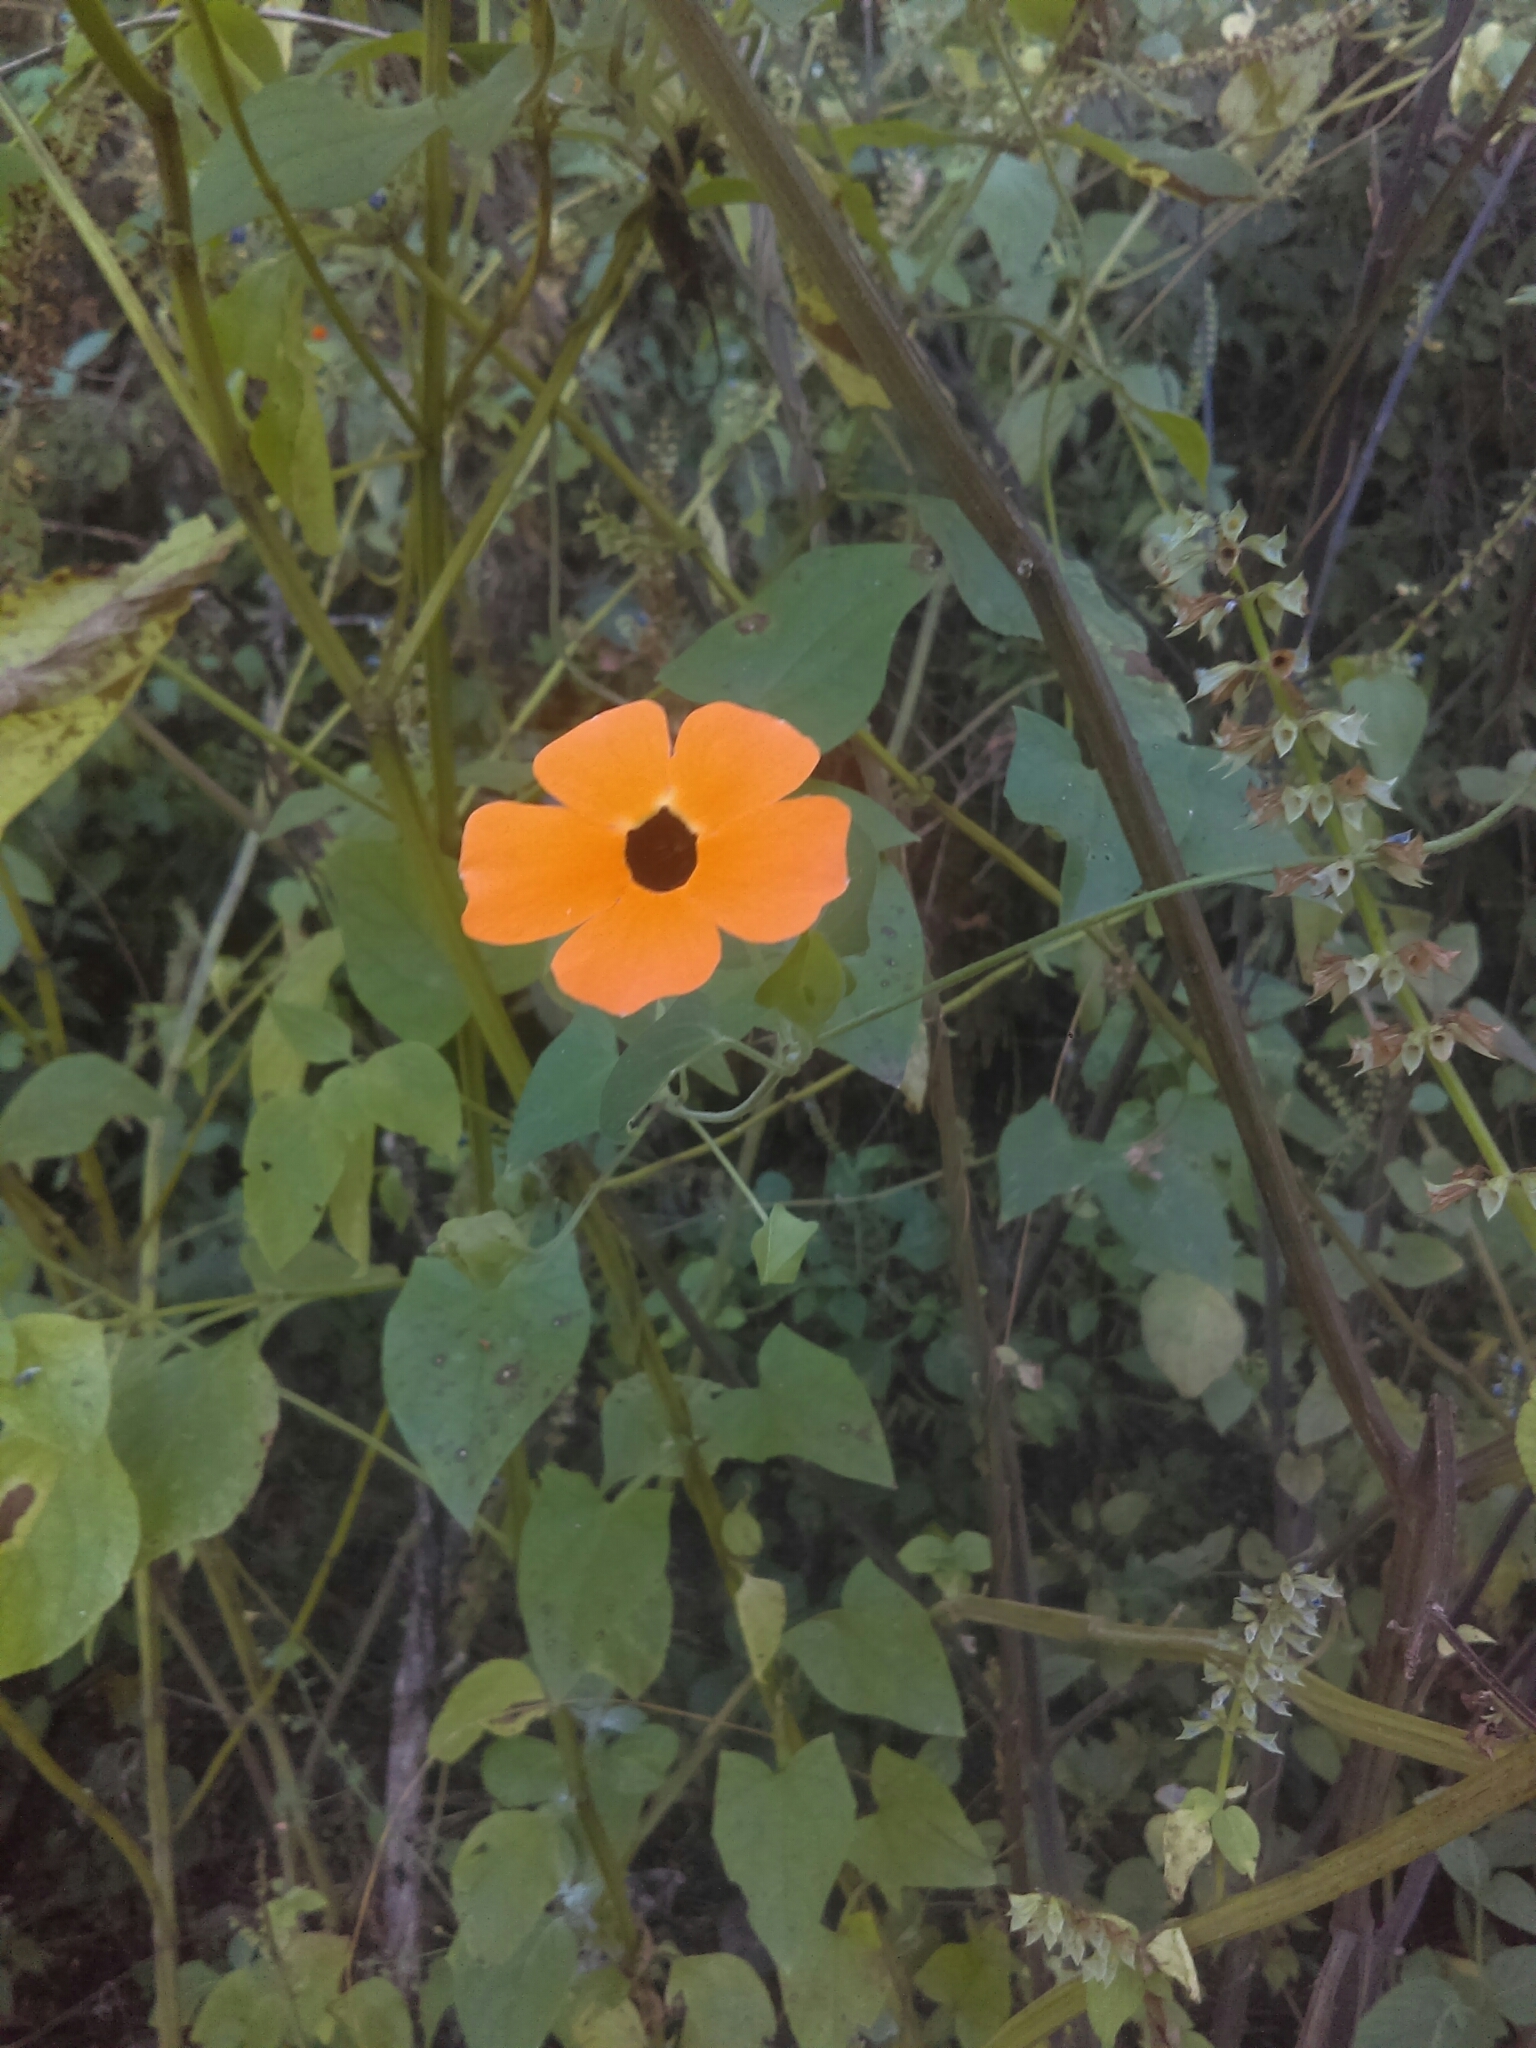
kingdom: Plantae
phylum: Tracheophyta
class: Magnoliopsida
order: Lamiales
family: Acanthaceae
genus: Thunbergia
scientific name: Thunbergia alata
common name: Blackeyed susan vine
